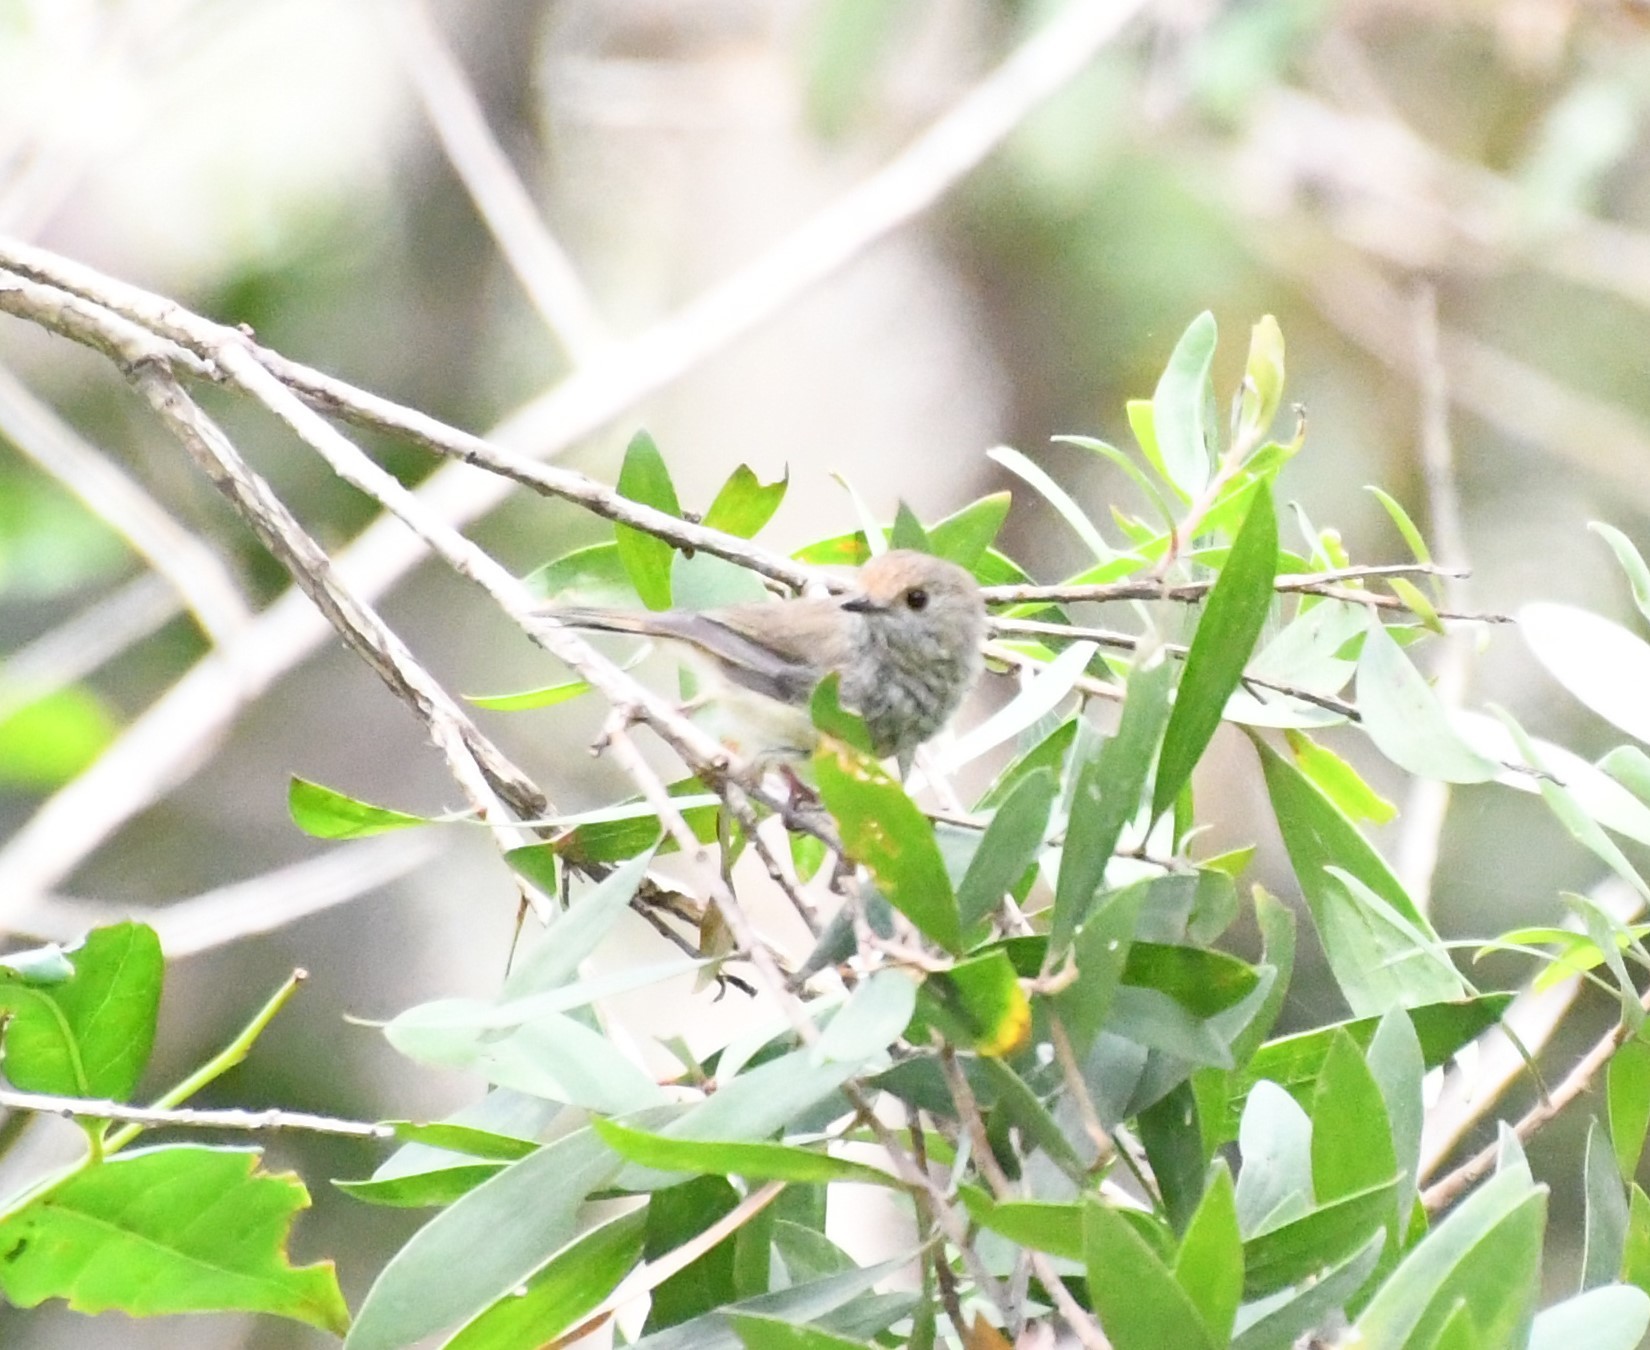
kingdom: Animalia
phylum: Chordata
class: Aves
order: Passeriformes
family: Acanthizidae
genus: Acanthiza
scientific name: Acanthiza pusilla
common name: Brown thornbill
